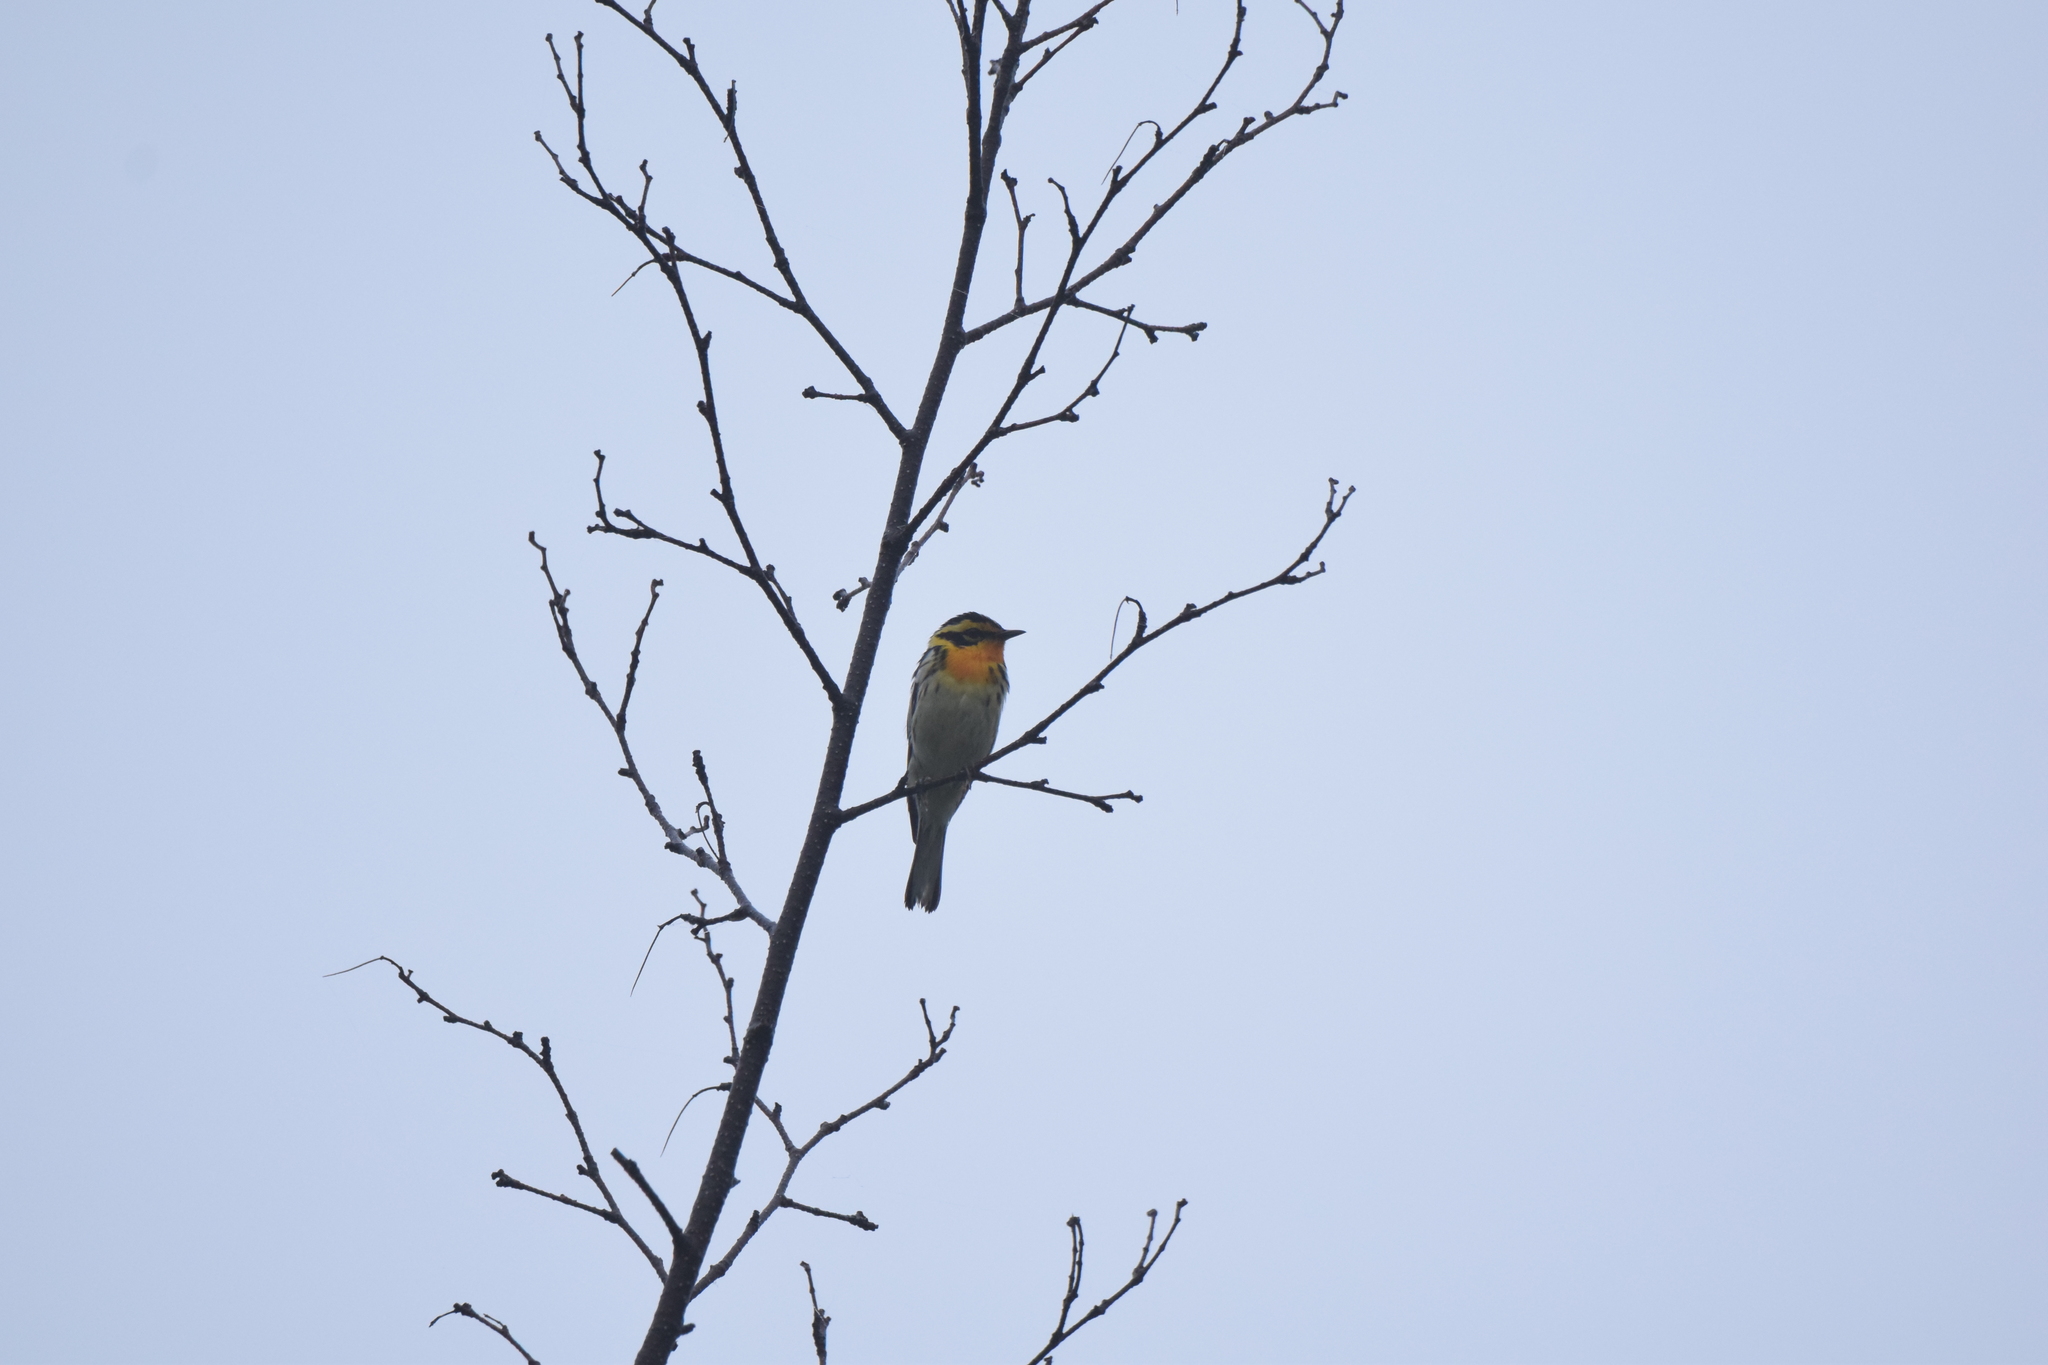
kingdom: Animalia
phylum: Chordata
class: Aves
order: Passeriformes
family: Parulidae
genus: Setophaga
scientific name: Setophaga fusca
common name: Blackburnian warbler
